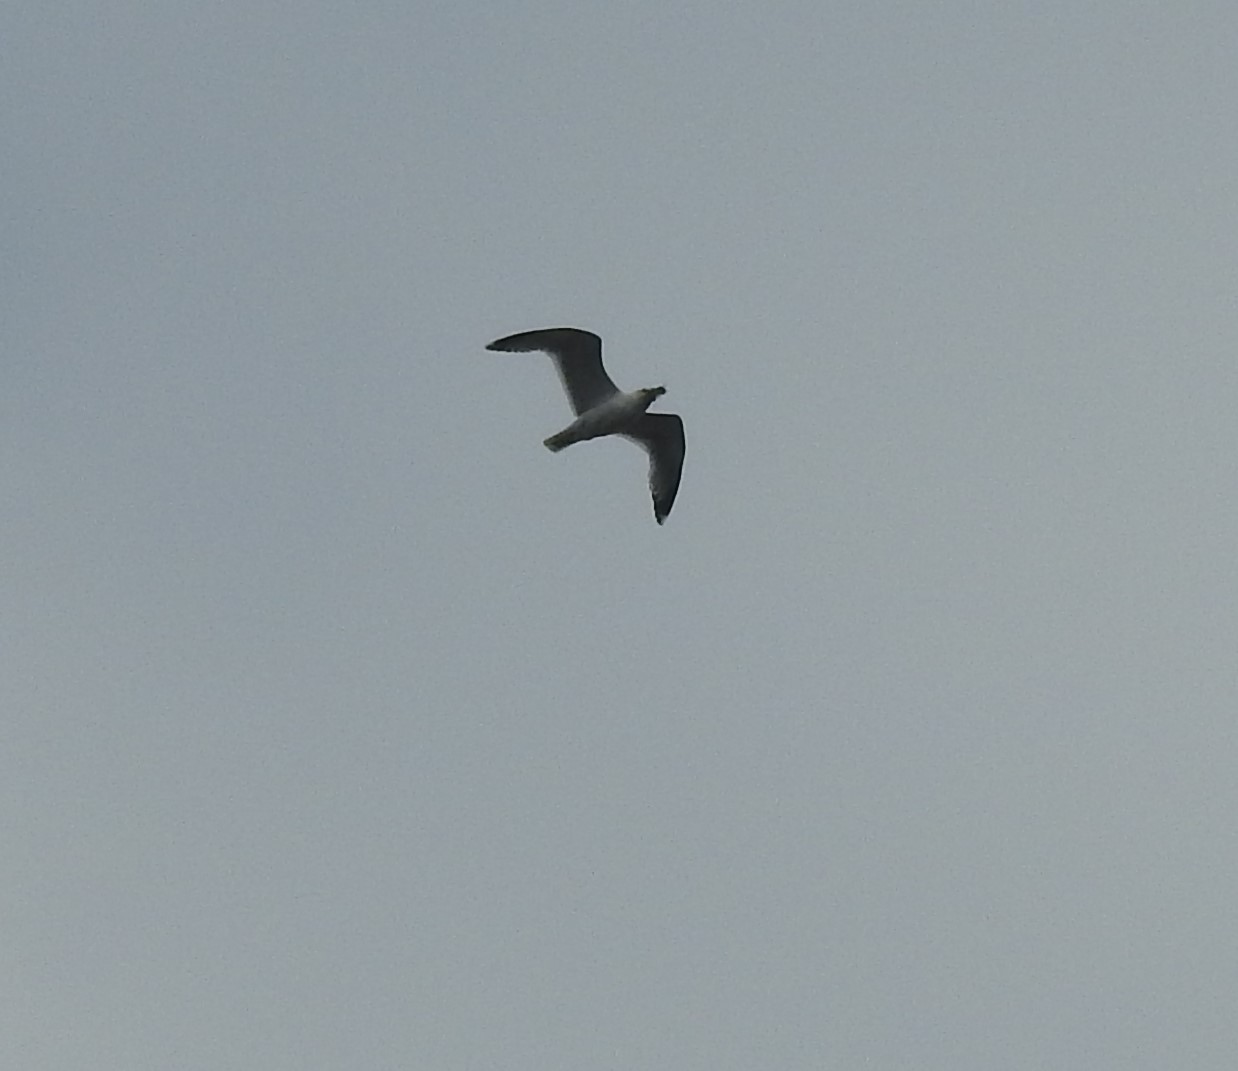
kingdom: Animalia
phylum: Chordata
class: Aves
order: Charadriiformes
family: Laridae
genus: Larus
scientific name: Larus canus
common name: Mew gull
